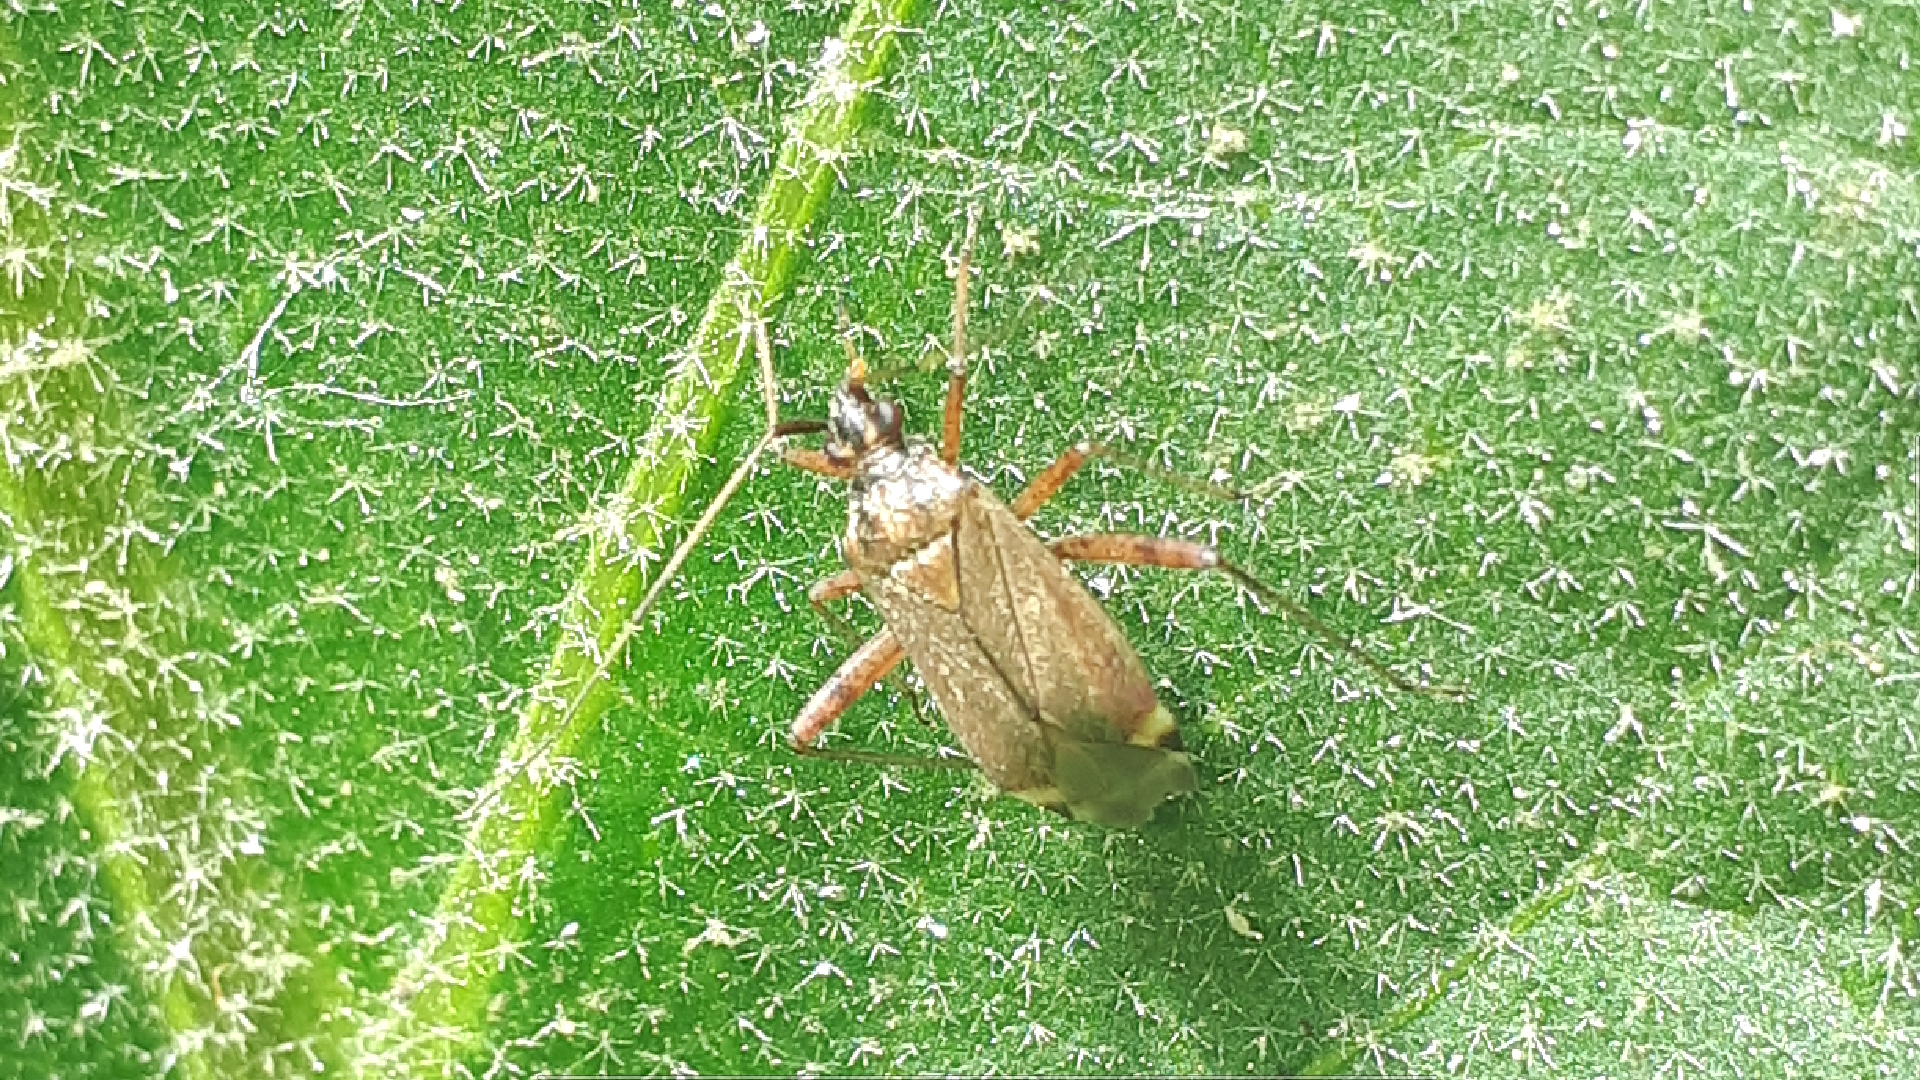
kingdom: Animalia
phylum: Arthropoda
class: Insecta
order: Hemiptera
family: Miridae
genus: Closterotomus
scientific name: Closterotomus fulvomaculatus
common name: Spotted plant bug
